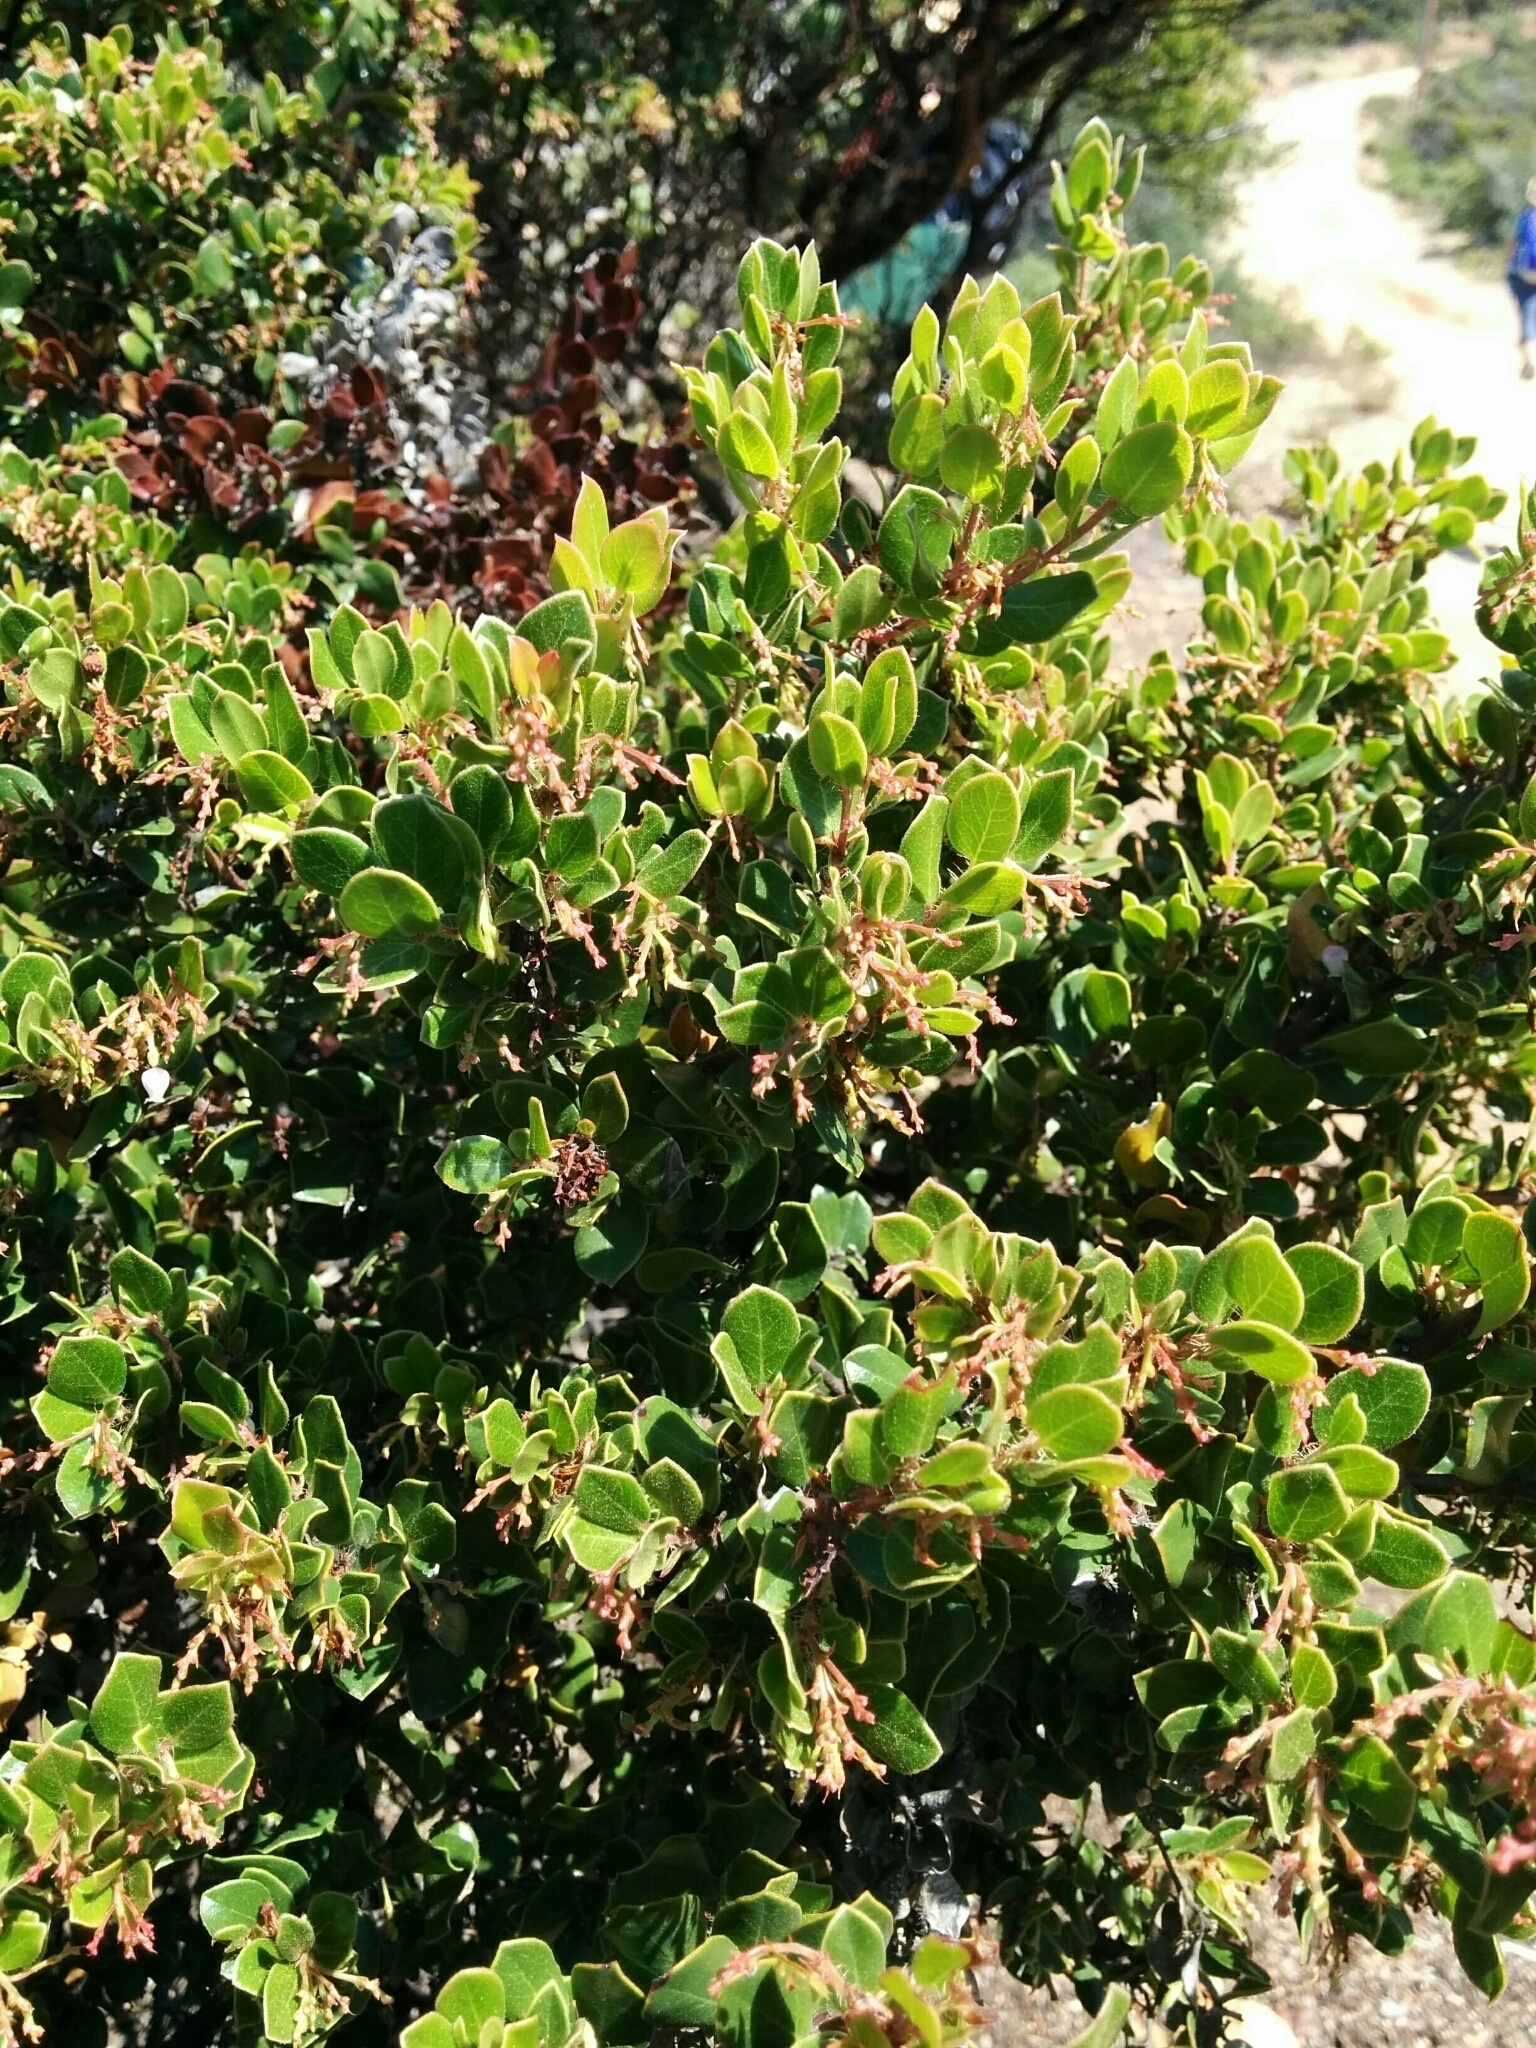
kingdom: Plantae
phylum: Tracheophyta
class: Magnoliopsida
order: Ericales
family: Ericaceae
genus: Arctostaphylos
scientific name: Arctostaphylos nummularia
